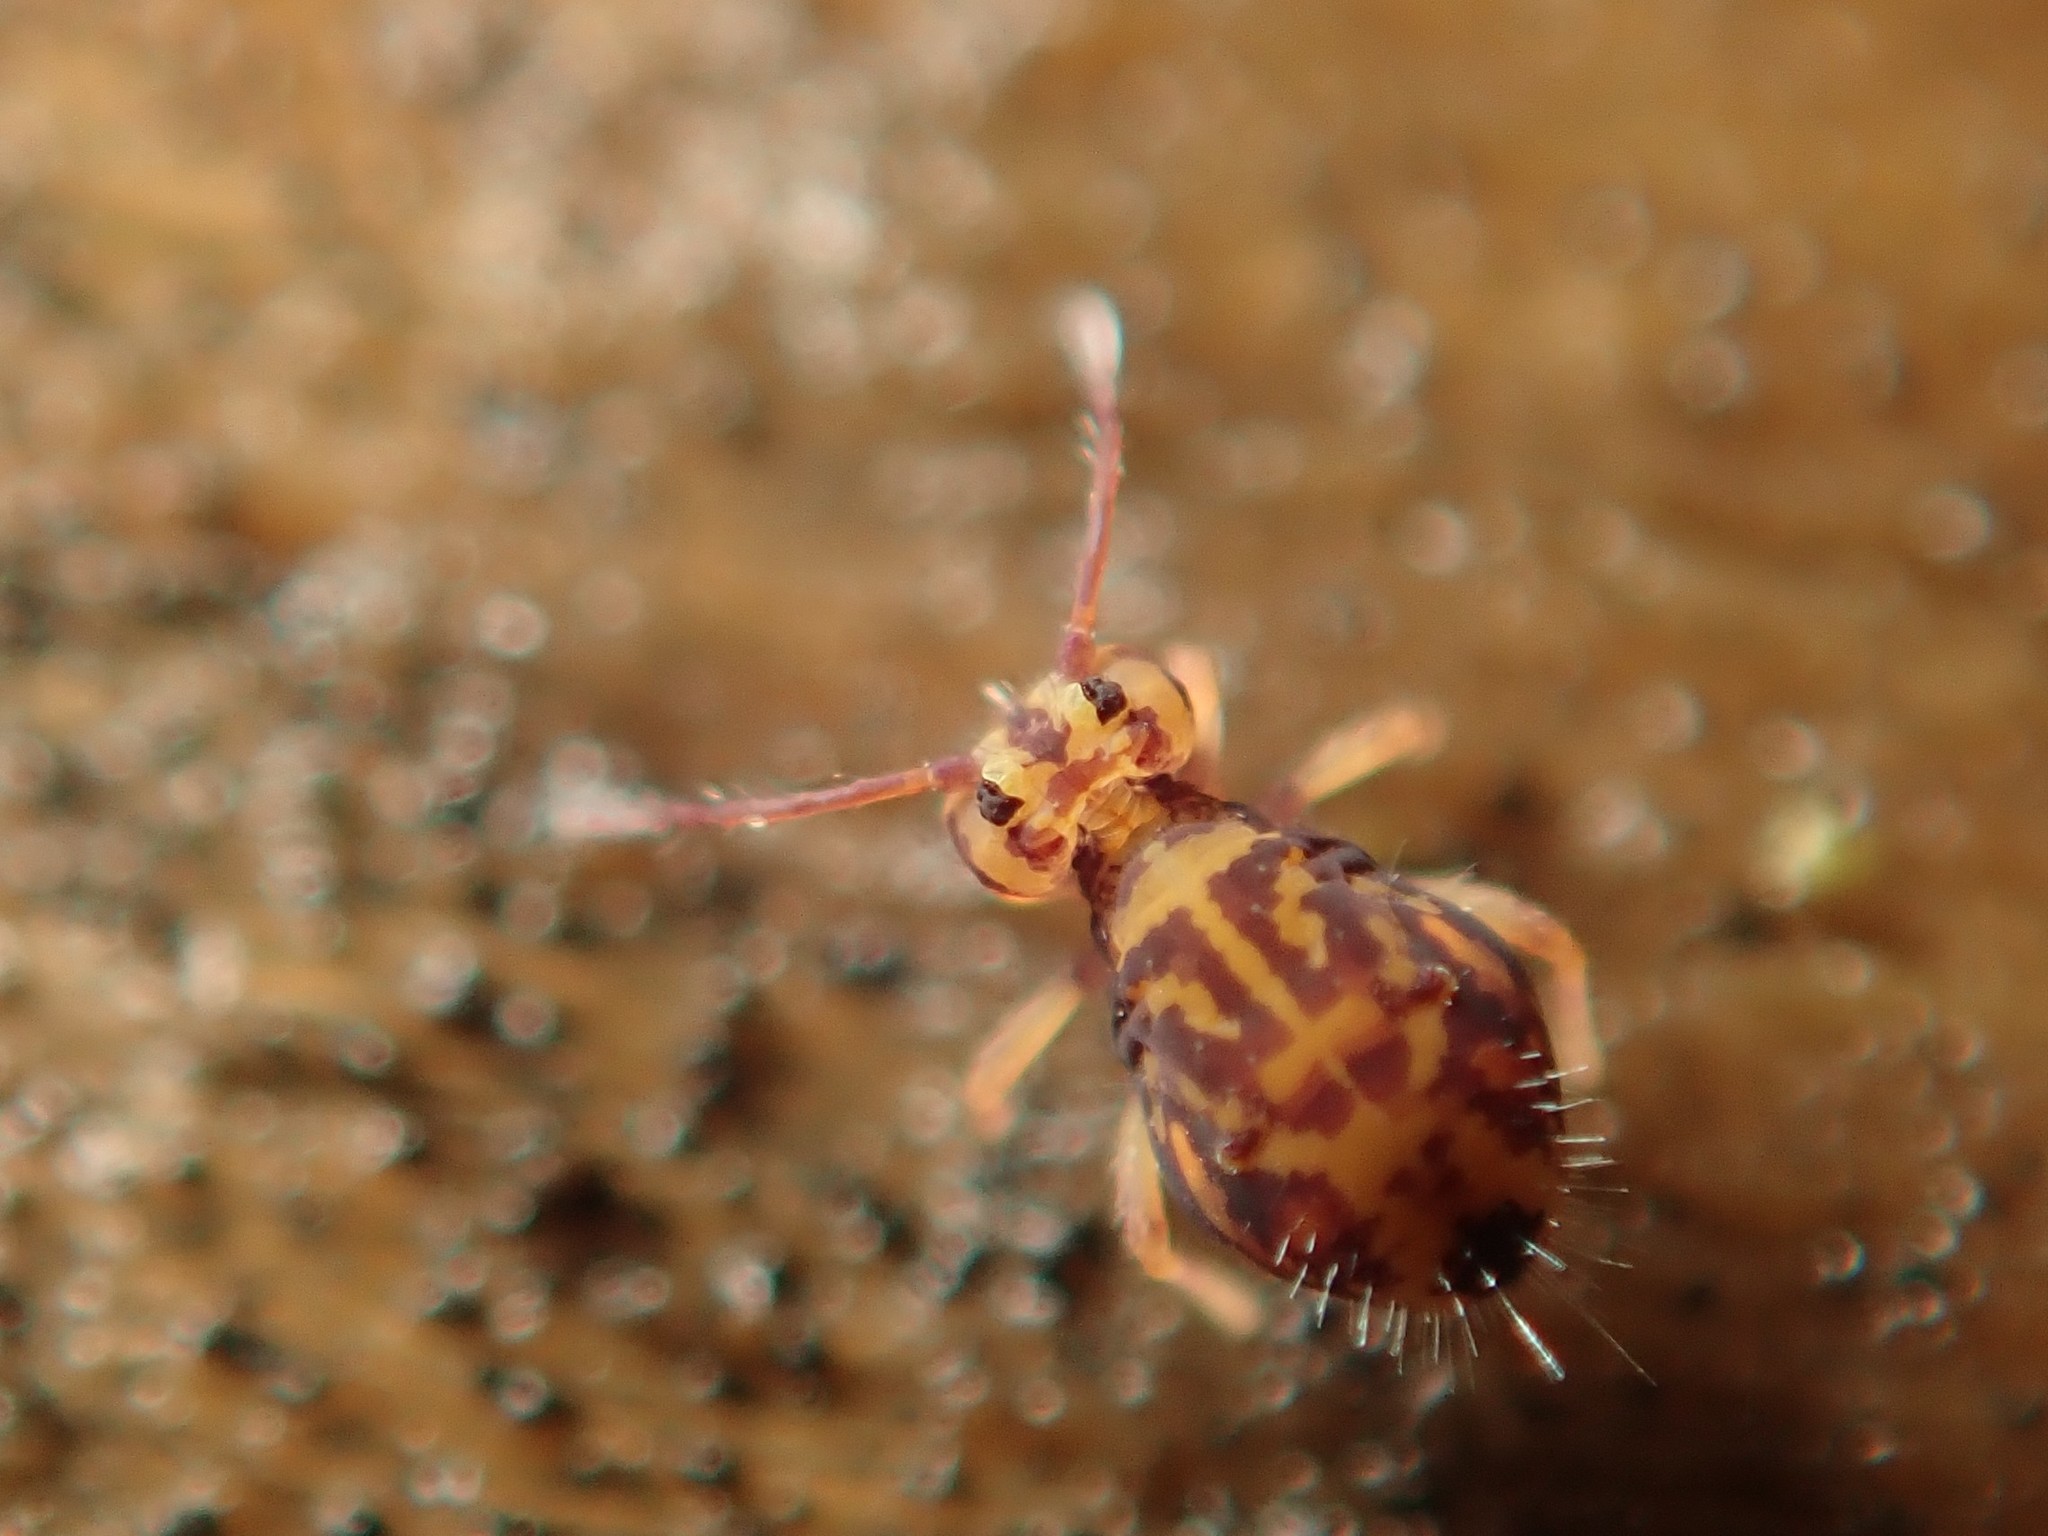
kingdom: Animalia
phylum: Arthropoda
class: Collembola
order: Symphypleona
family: Dicyrtomidae
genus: Dicyrtomina
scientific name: Dicyrtomina ornata
